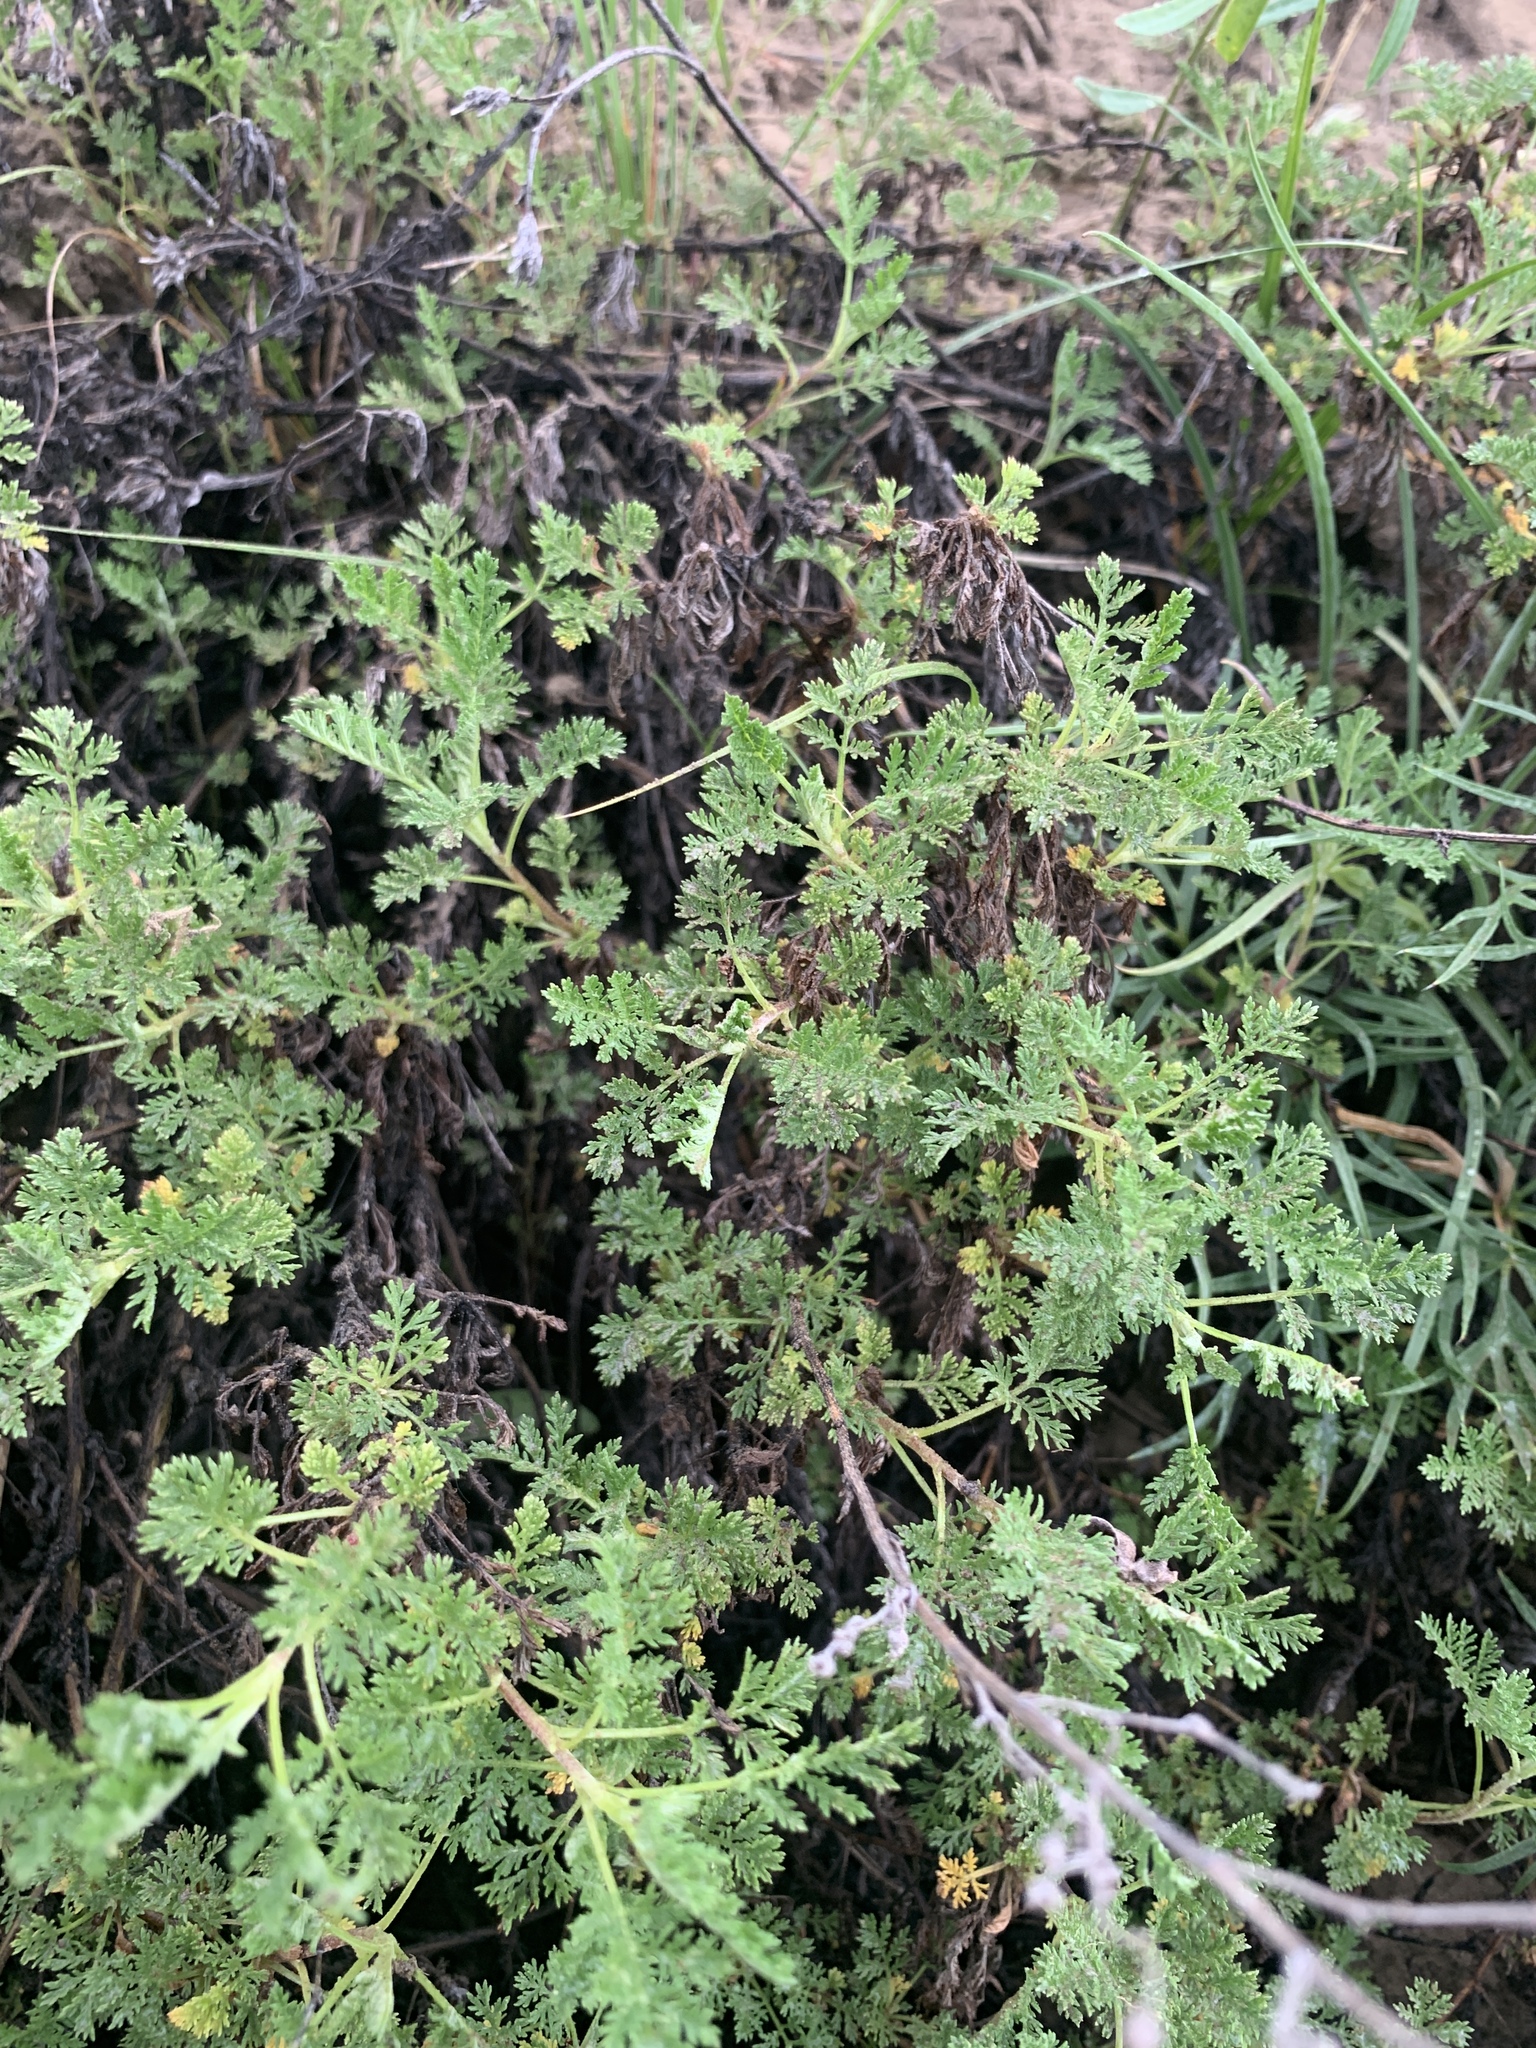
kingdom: Plantae
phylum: Tracheophyta
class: Magnoliopsida
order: Asterales
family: Asteraceae
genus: Artemisia
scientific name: Artemisia gmelinii
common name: Gmelin's wormwood
